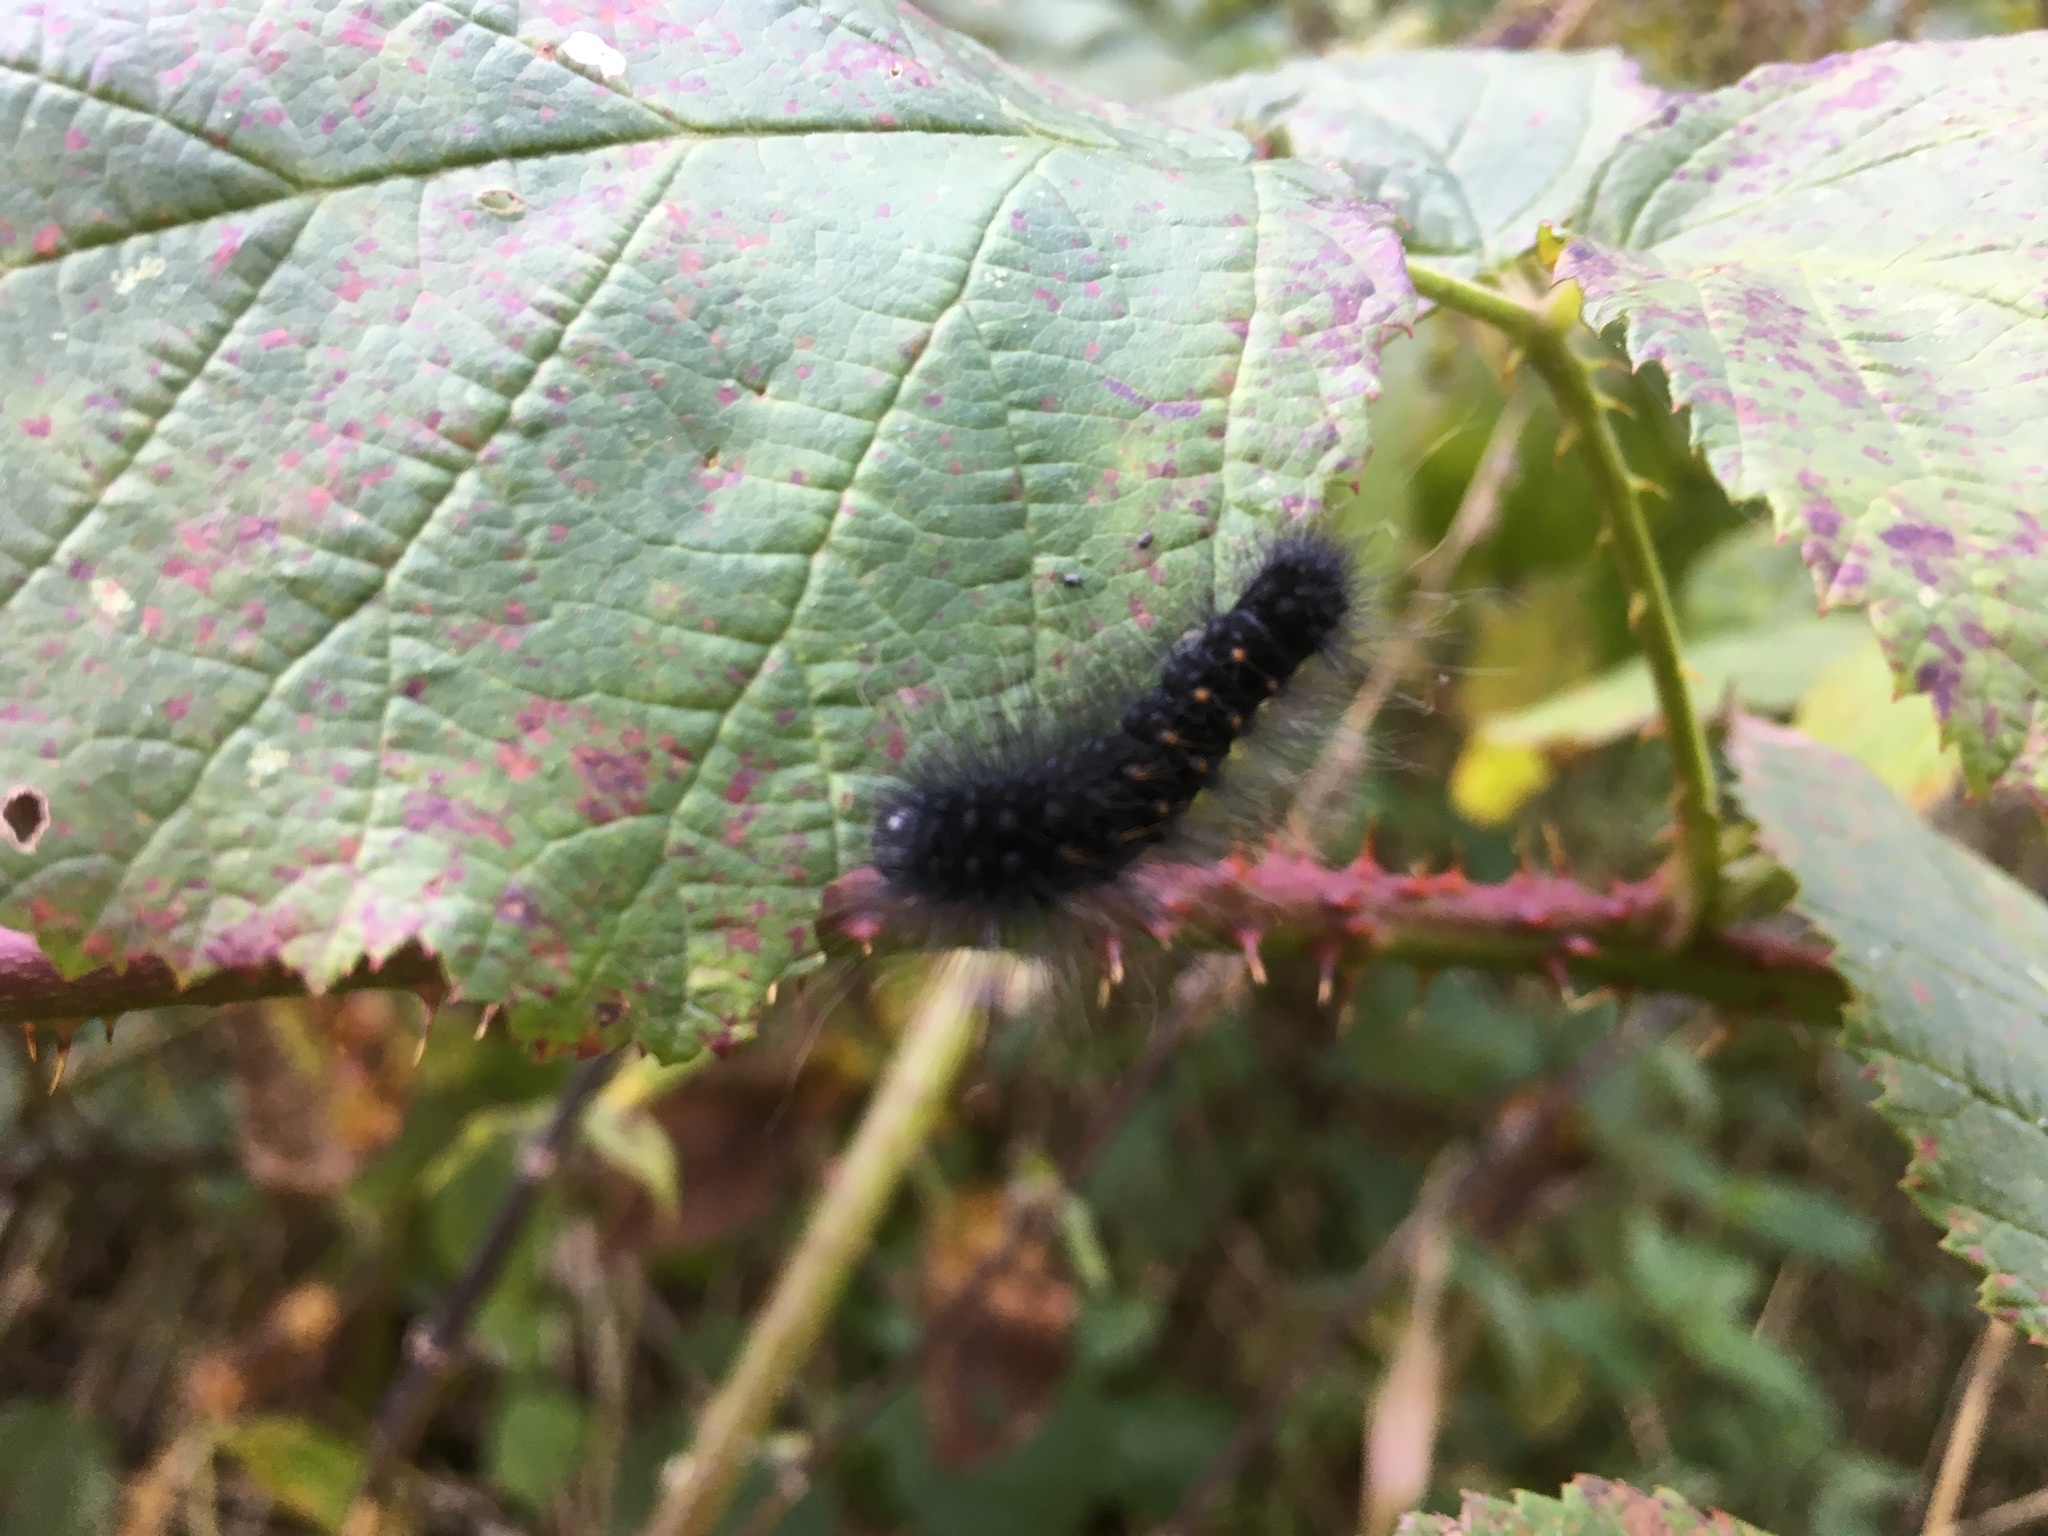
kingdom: Animalia
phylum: Arthropoda
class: Insecta
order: Lepidoptera
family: Saturniidae
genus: Saturnia
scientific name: Saturnia pavonia
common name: Emperor moth
